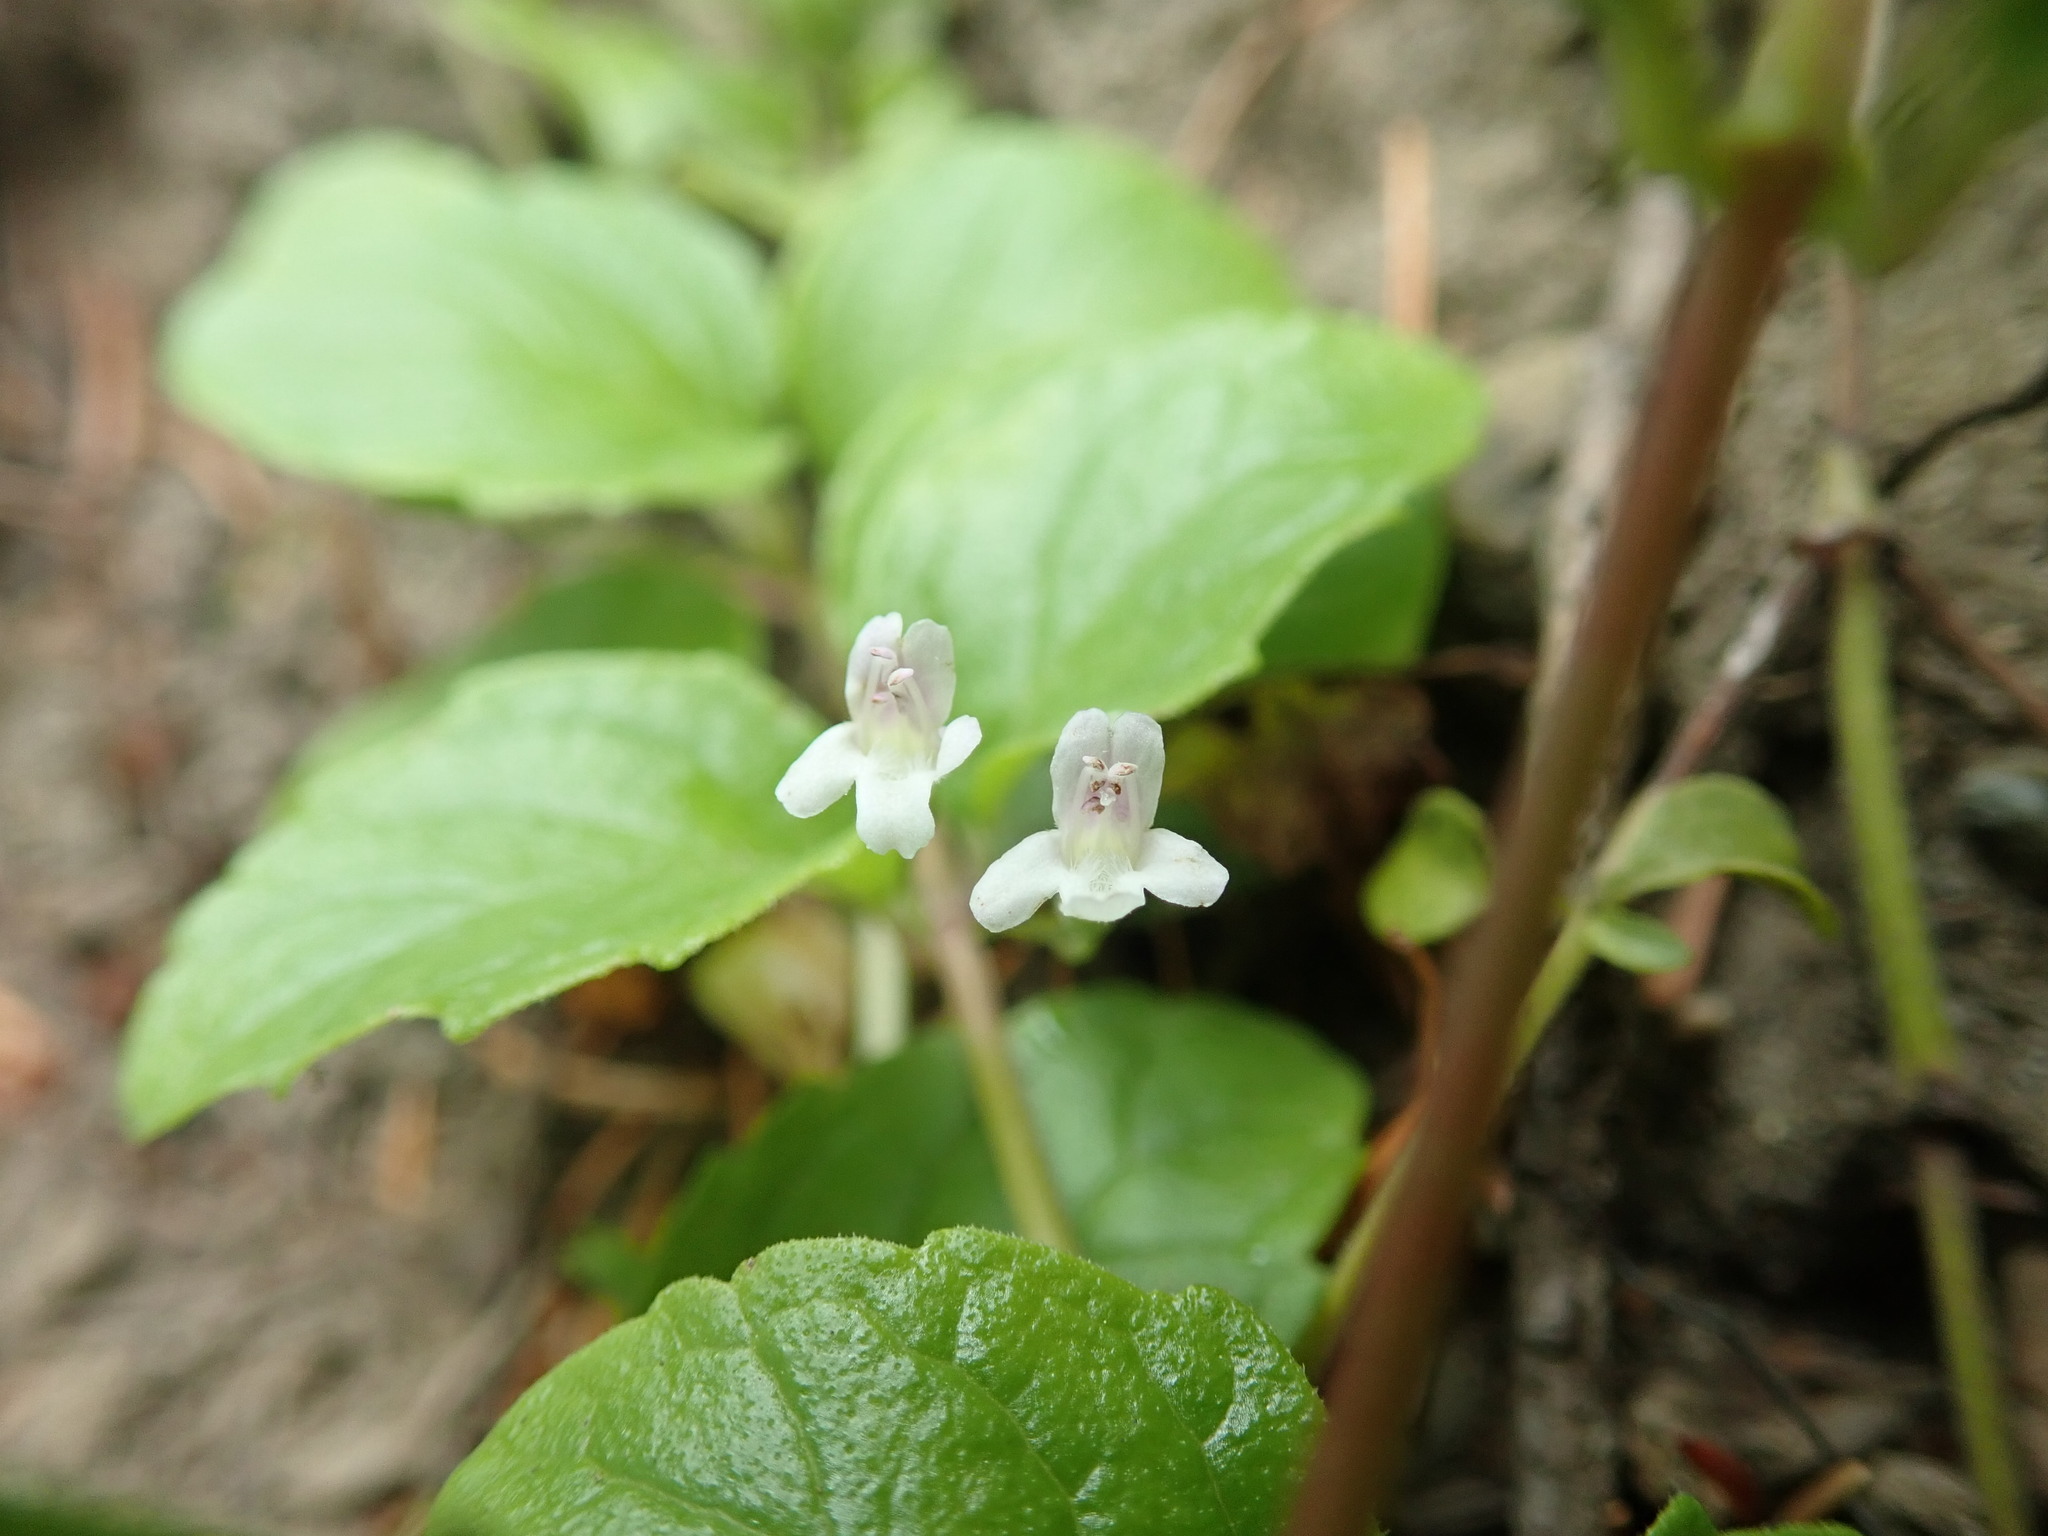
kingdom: Plantae
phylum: Tracheophyta
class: Magnoliopsida
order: Lamiales
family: Lamiaceae
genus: Micromeria
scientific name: Micromeria douglasii
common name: Yerba buena
